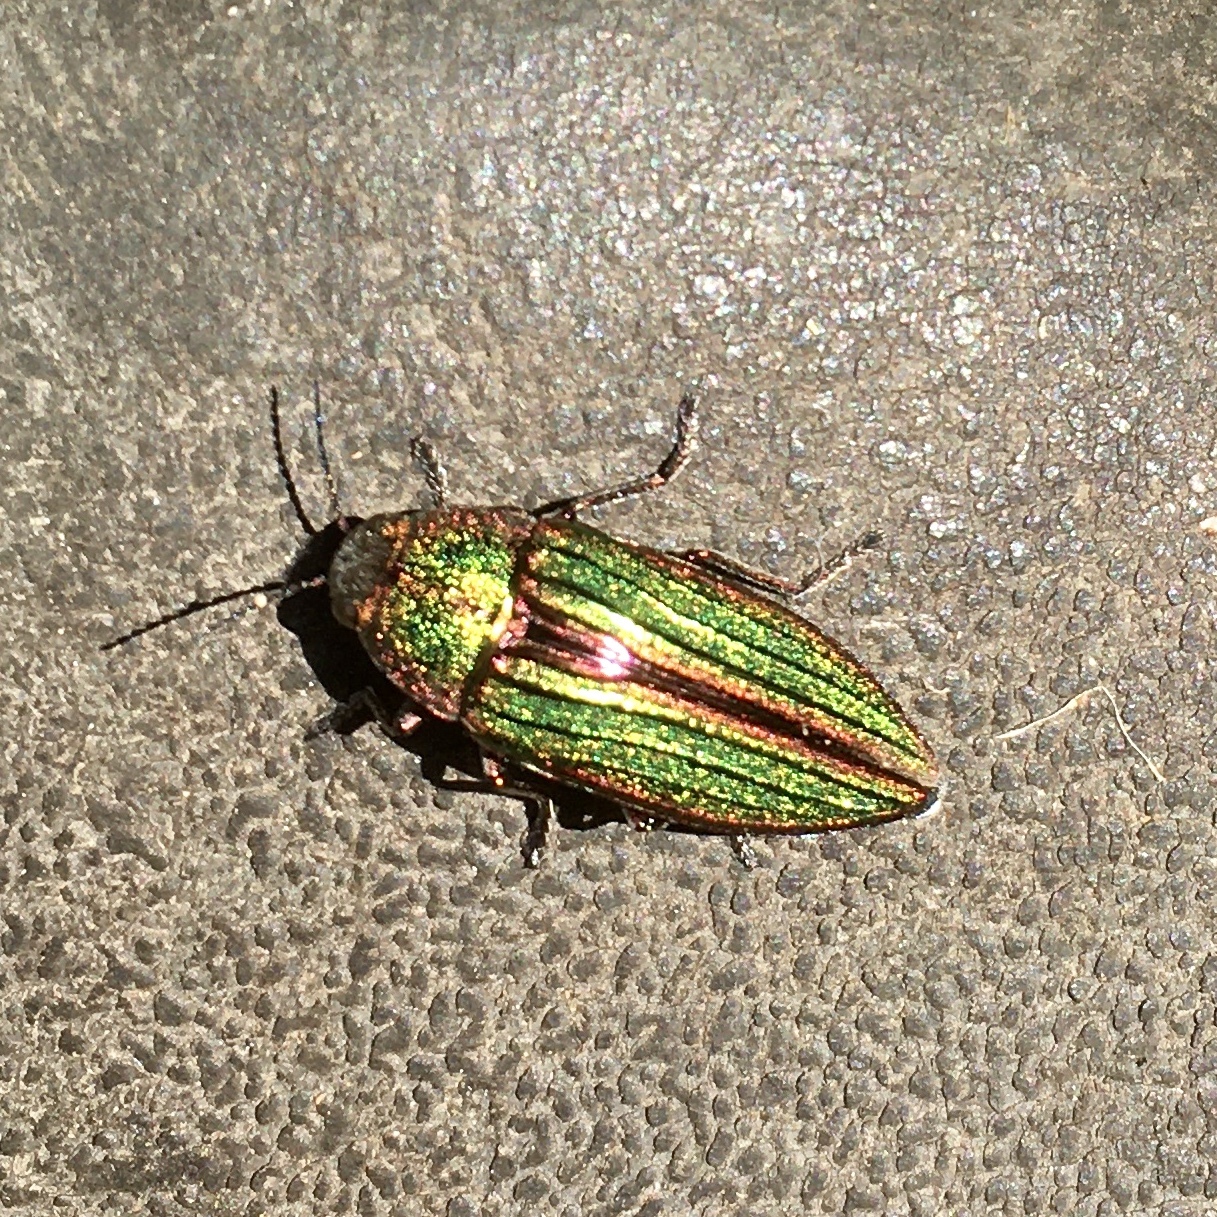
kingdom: Animalia
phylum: Arthropoda
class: Insecta
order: Coleoptera
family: Buprestidae
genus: Buprestis
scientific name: Buprestis aurulenta
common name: Golden buprestid
